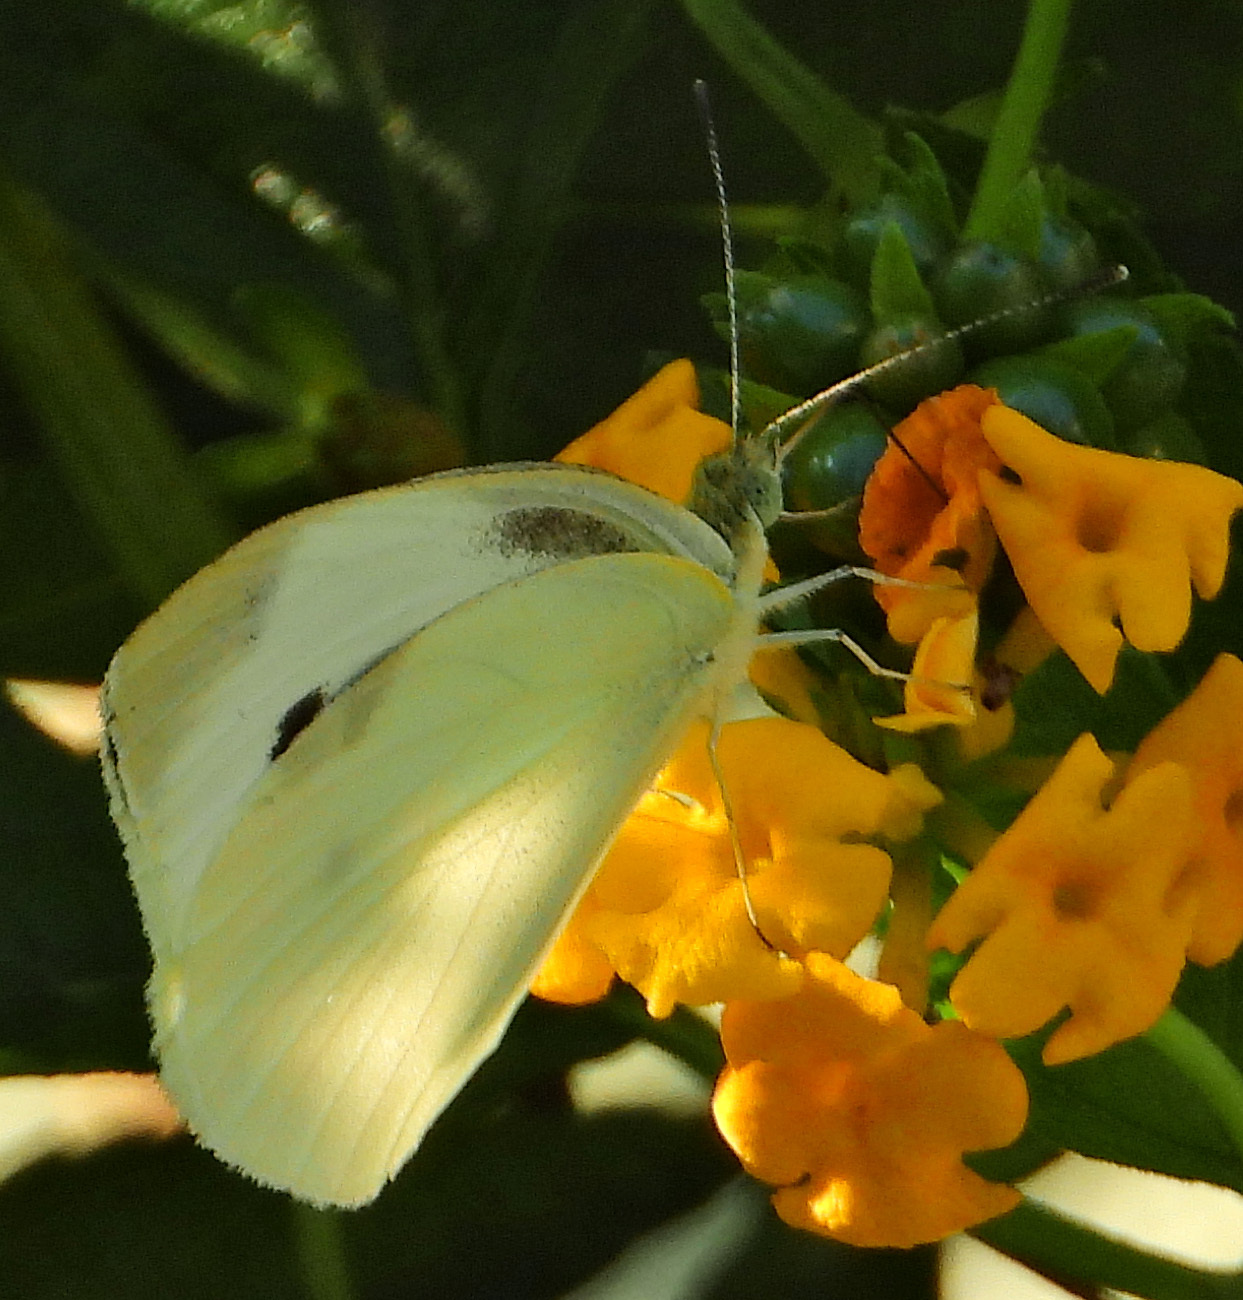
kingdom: Animalia
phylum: Arthropoda
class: Insecta
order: Lepidoptera
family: Pieridae
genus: Pieris
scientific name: Pieris rapae
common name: Small white
